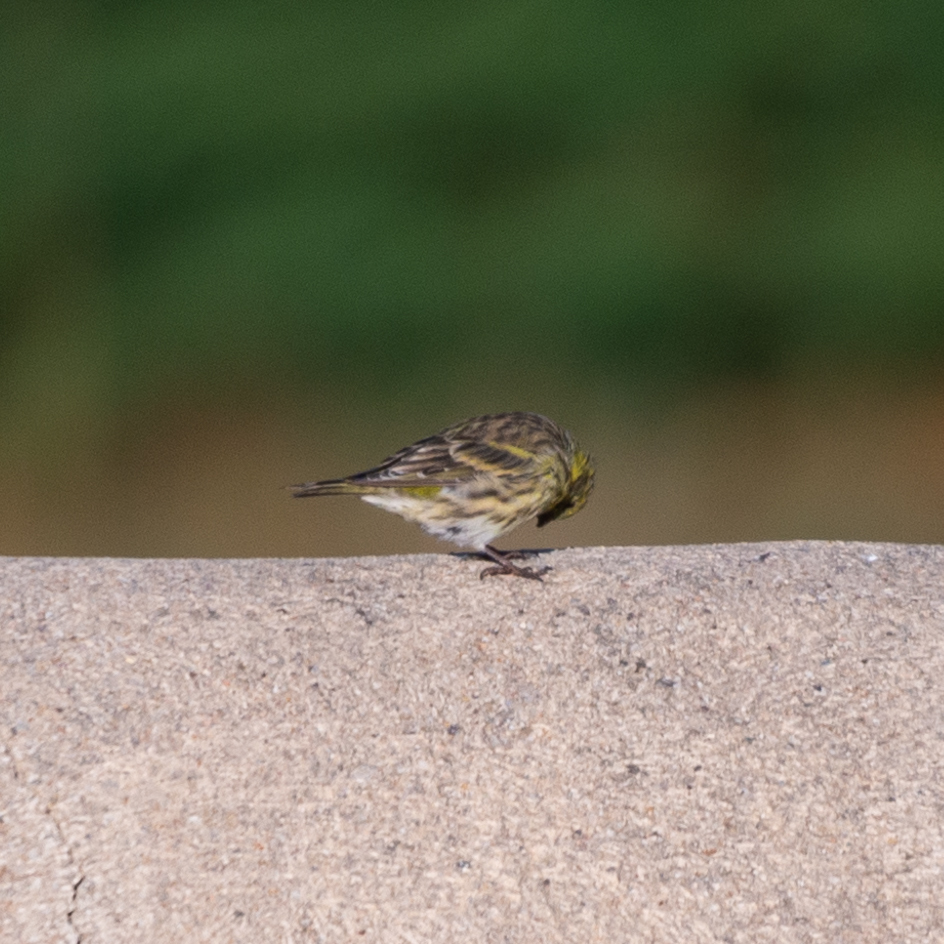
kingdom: Animalia
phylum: Chordata
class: Aves
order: Passeriformes
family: Fringillidae
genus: Serinus
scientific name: Serinus serinus
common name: European serin
